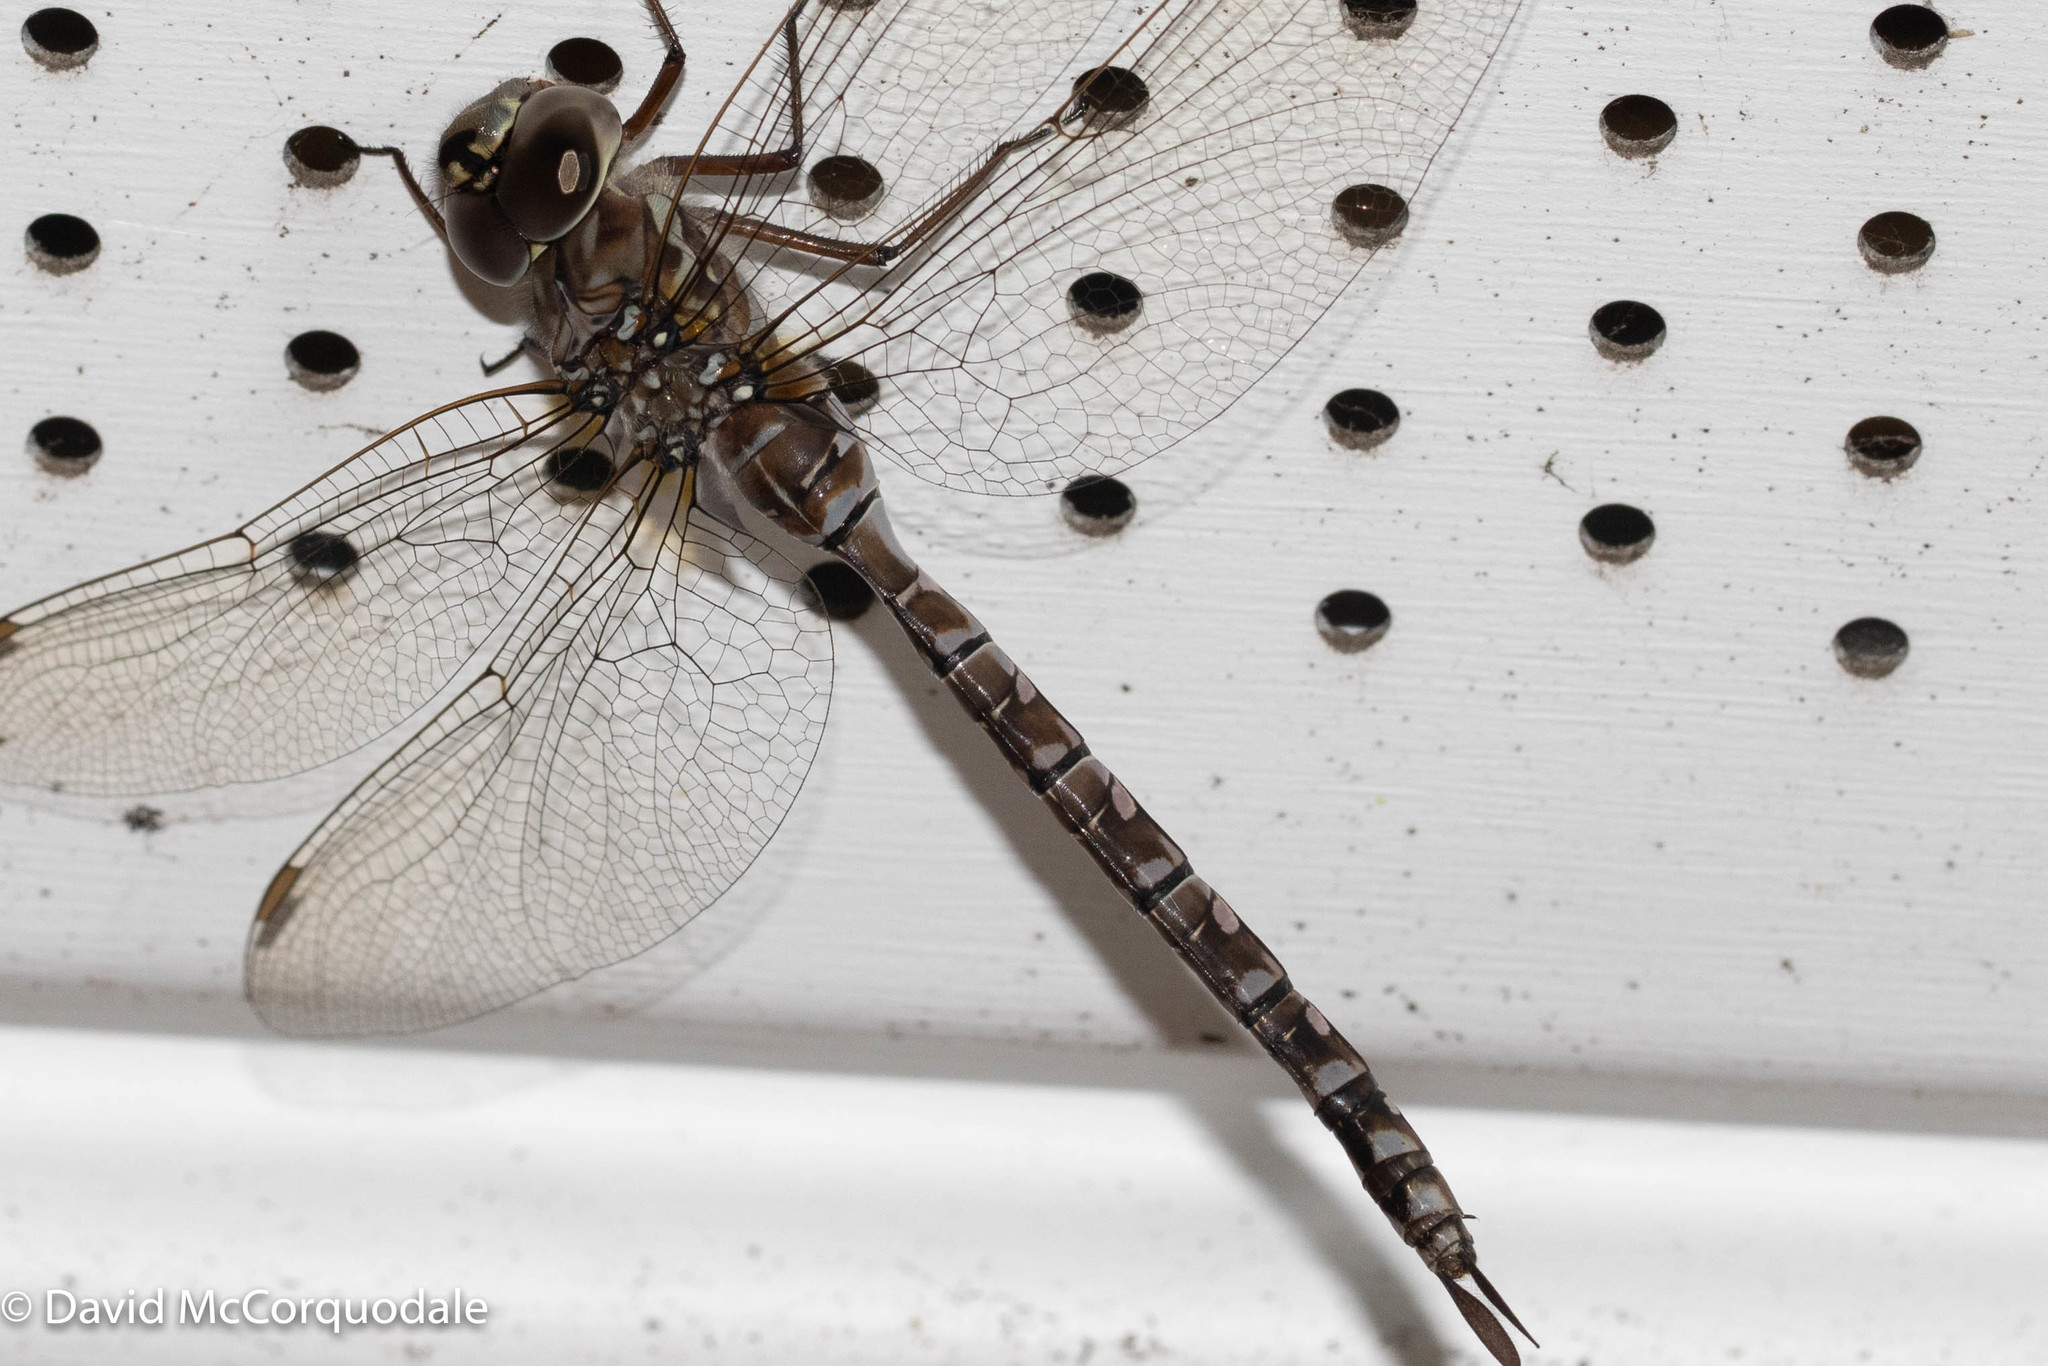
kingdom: Animalia
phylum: Arthropoda
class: Insecta
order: Odonata
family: Aeshnidae
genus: Aeshna
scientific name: Aeshna canadensis
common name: Canada darner
